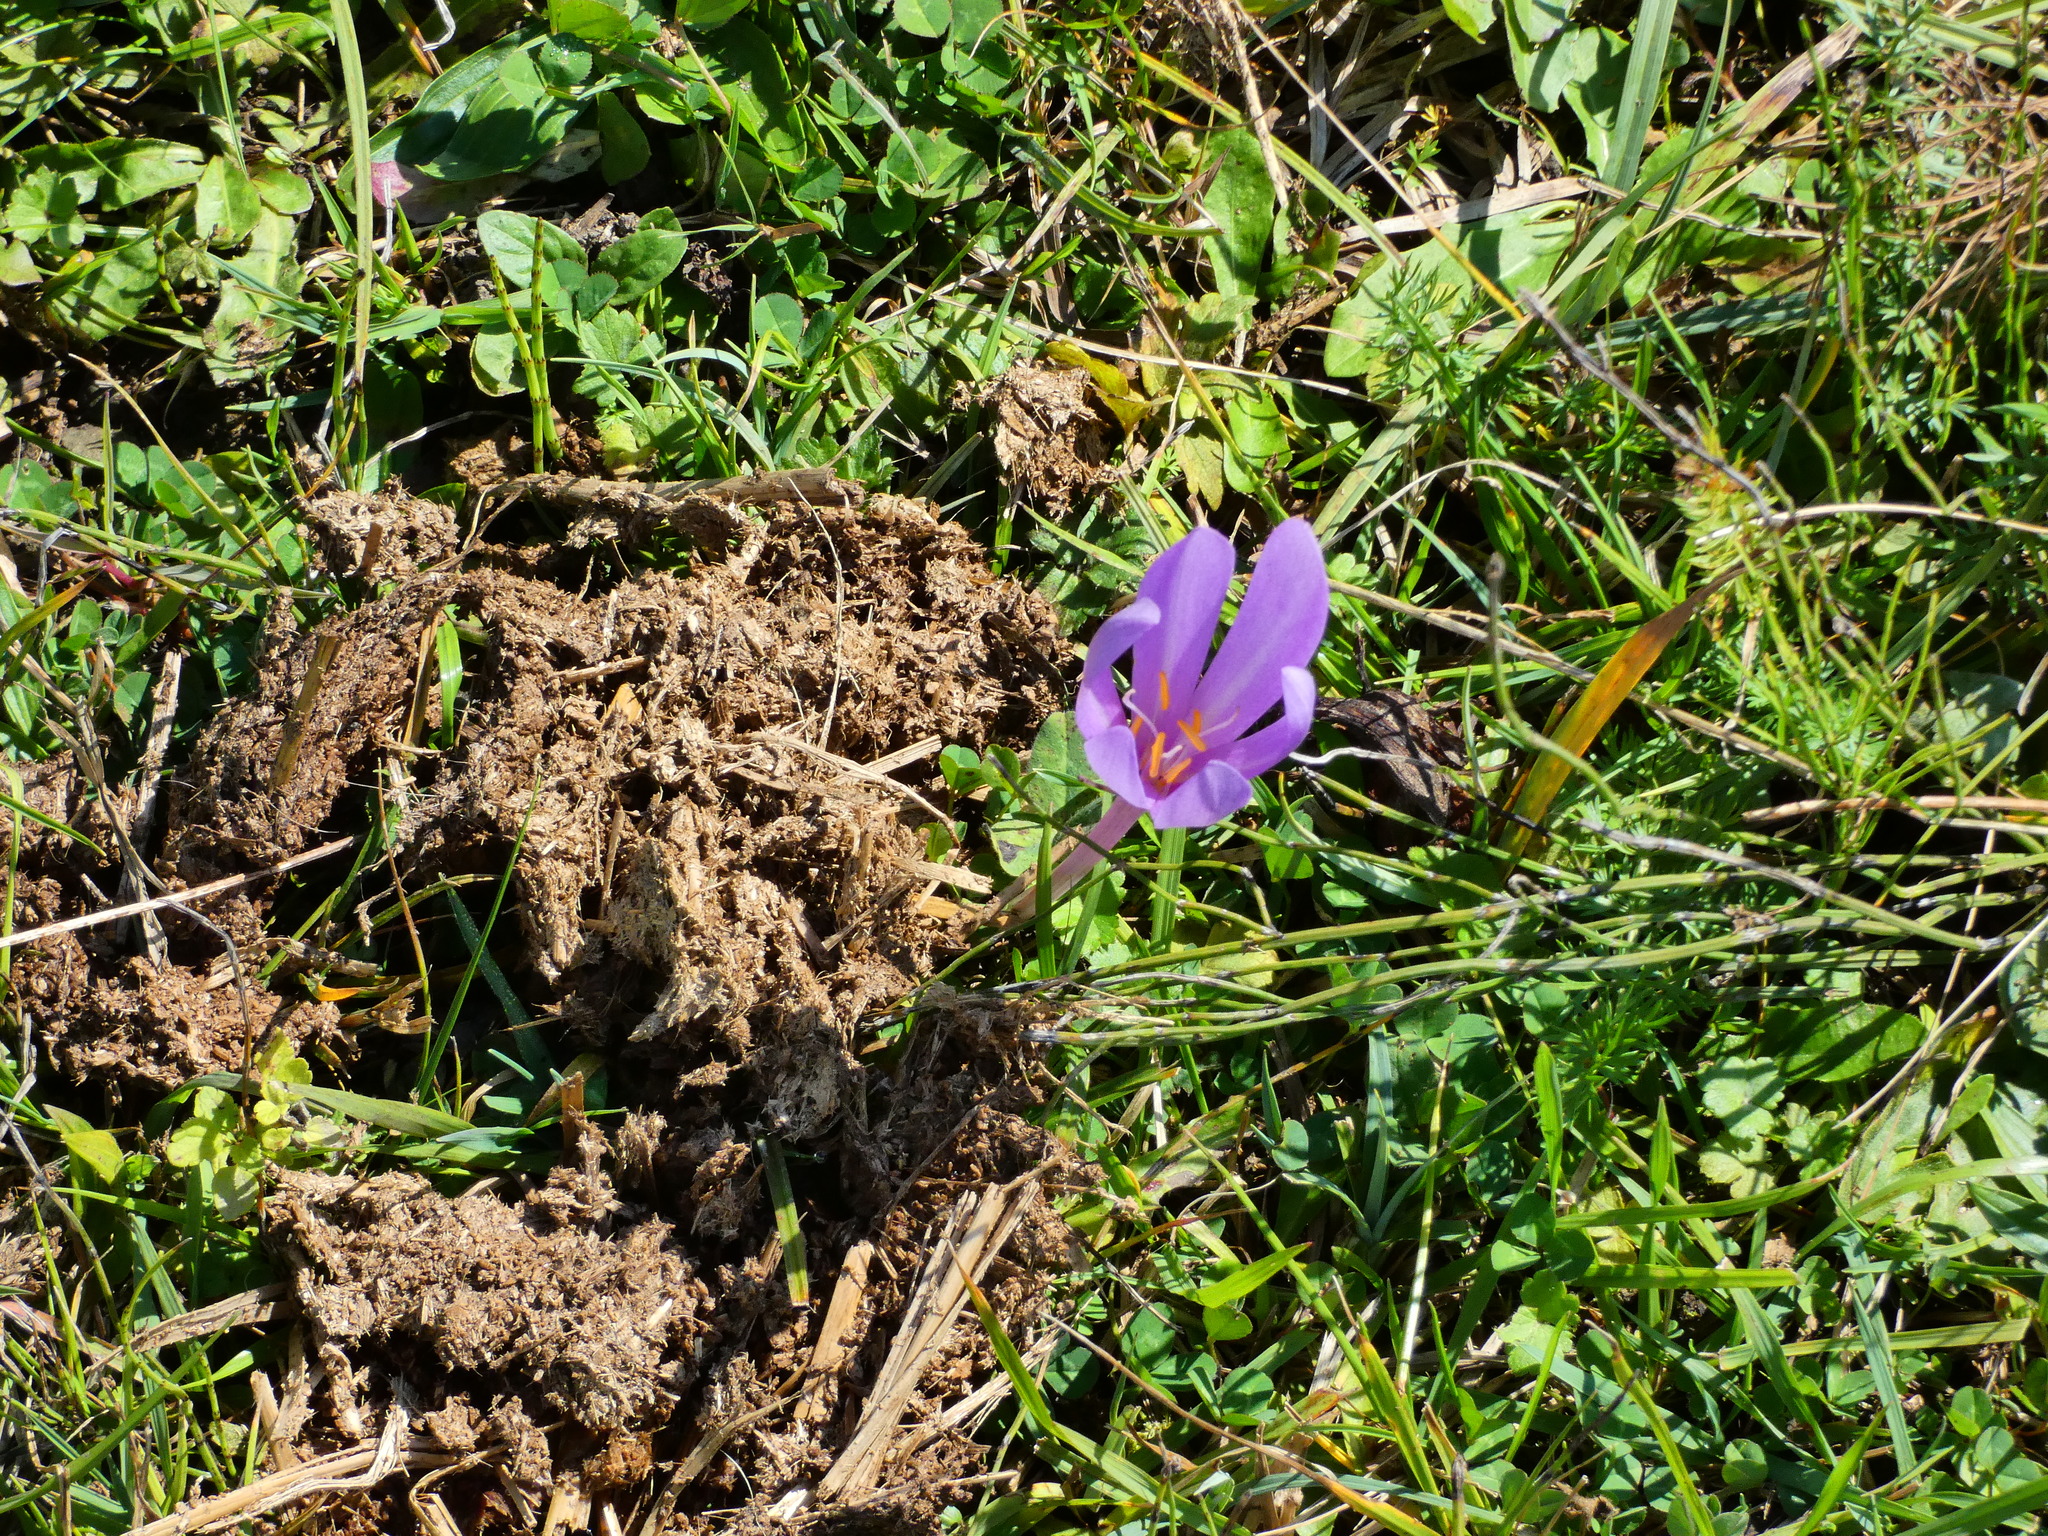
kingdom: Plantae
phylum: Tracheophyta
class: Liliopsida
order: Liliales
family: Colchicaceae
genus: Colchicum
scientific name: Colchicum autumnale
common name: Autumn crocus
